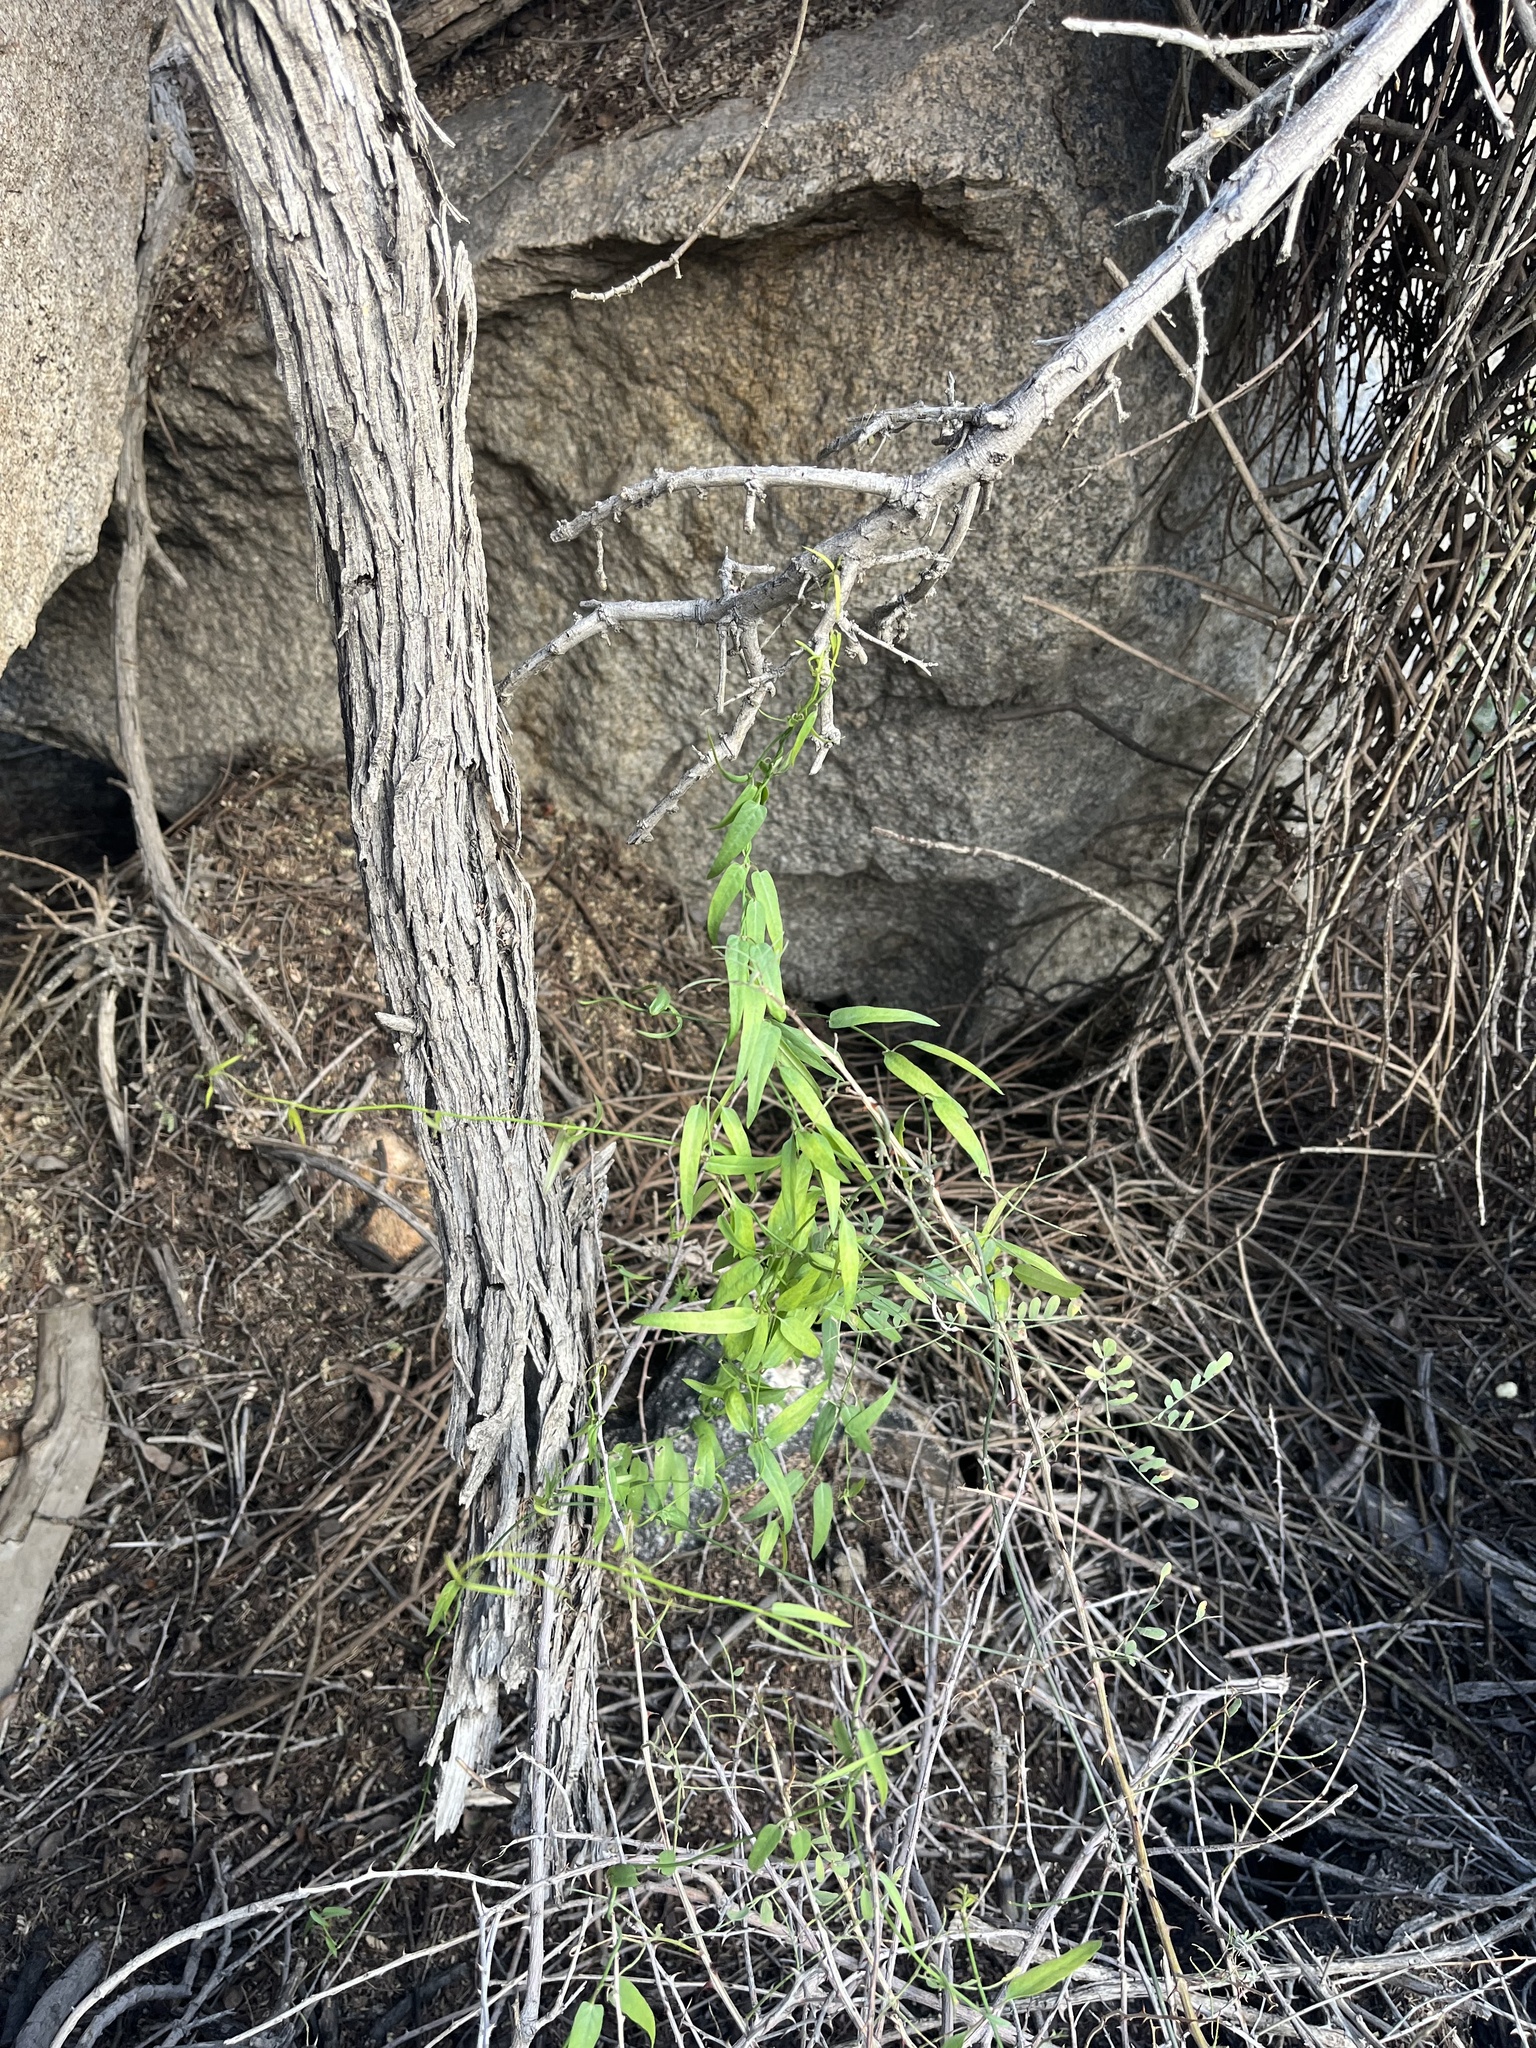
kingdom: Plantae
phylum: Tracheophyta
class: Magnoliopsida
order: Gentianales
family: Apocynaceae
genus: Funastrum
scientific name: Funastrum heterophyllum
